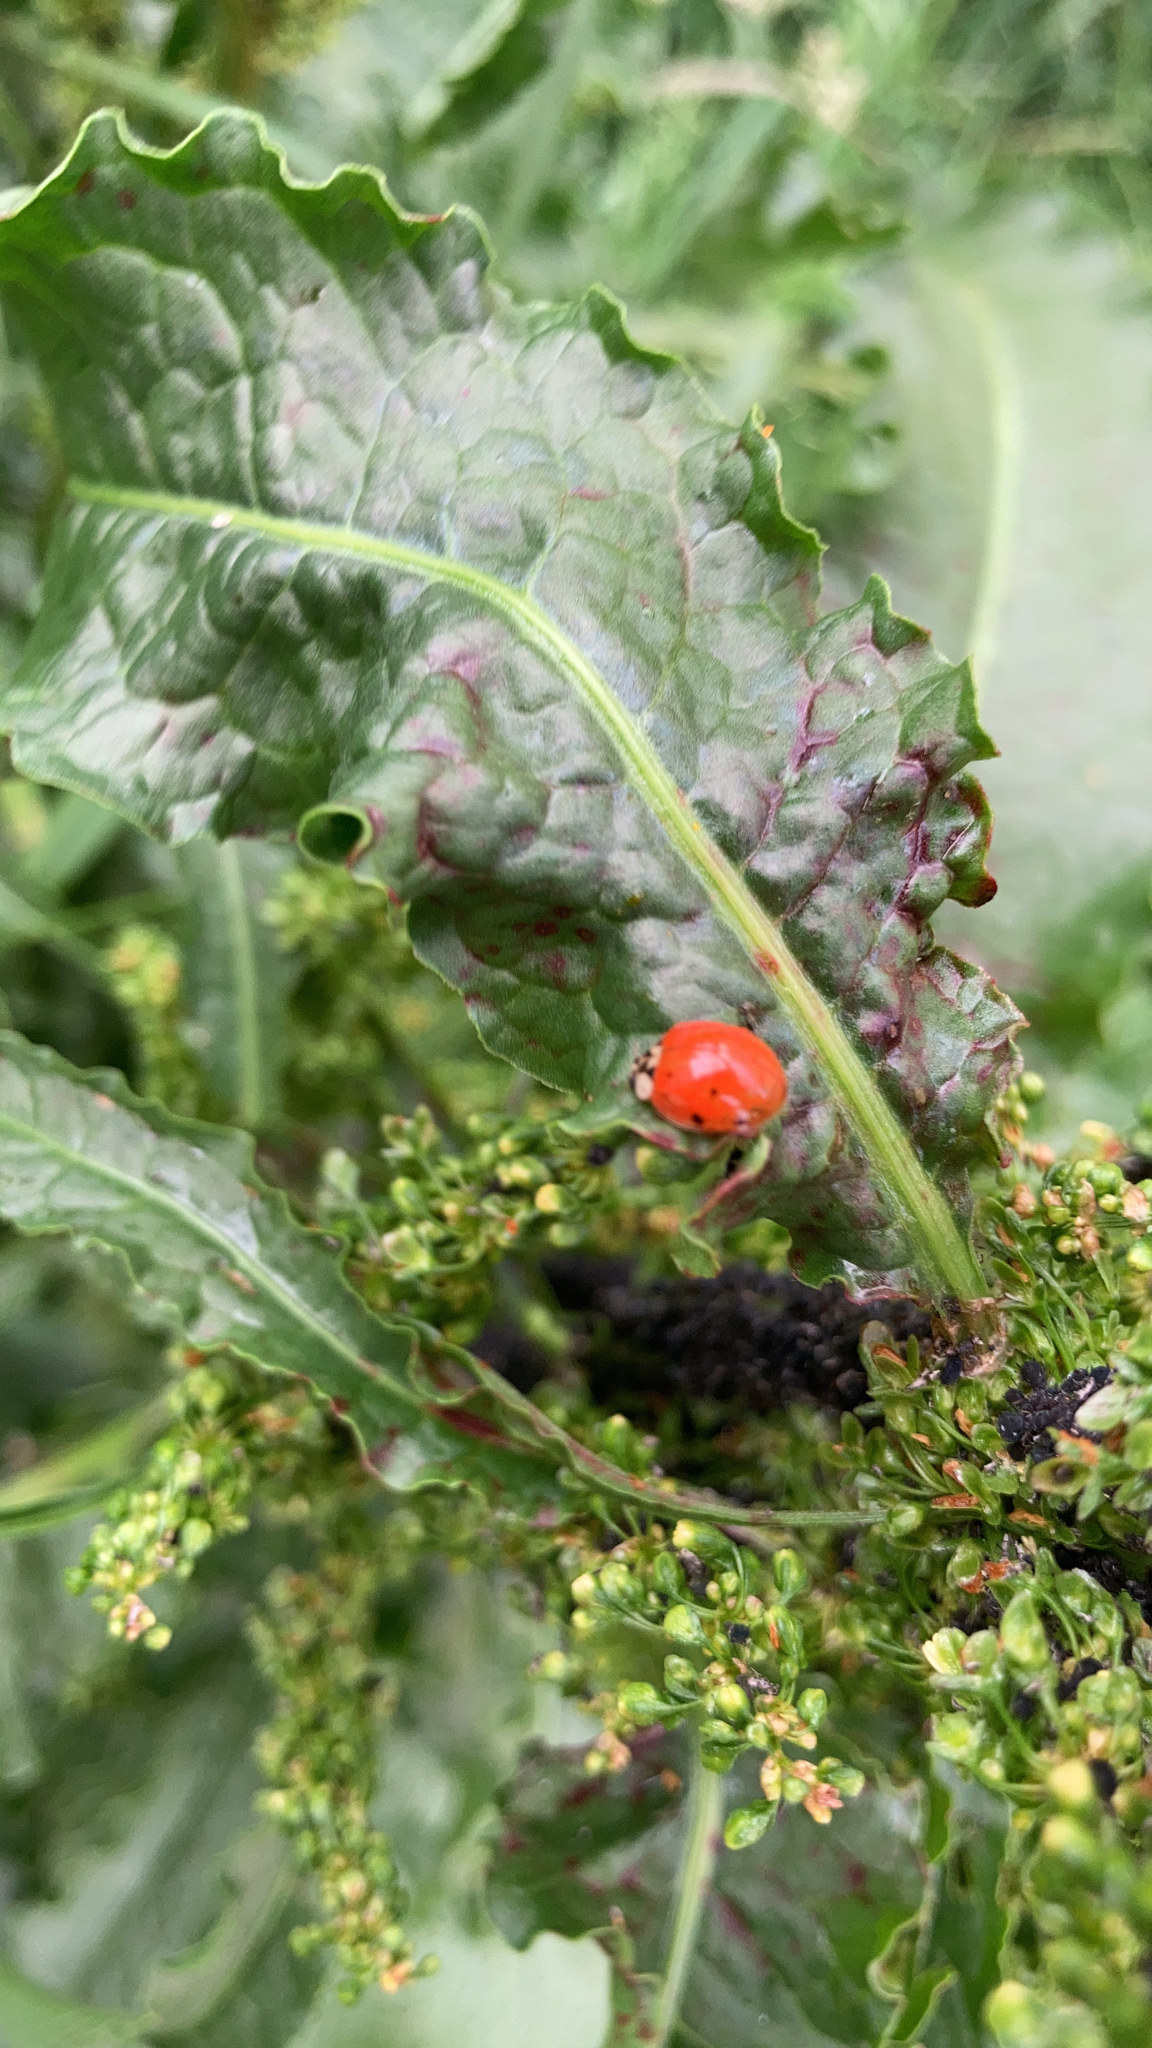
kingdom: Animalia
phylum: Arthropoda
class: Insecta
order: Coleoptera
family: Coccinellidae
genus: Harmonia
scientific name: Harmonia axyridis
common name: Harlequin ladybird
